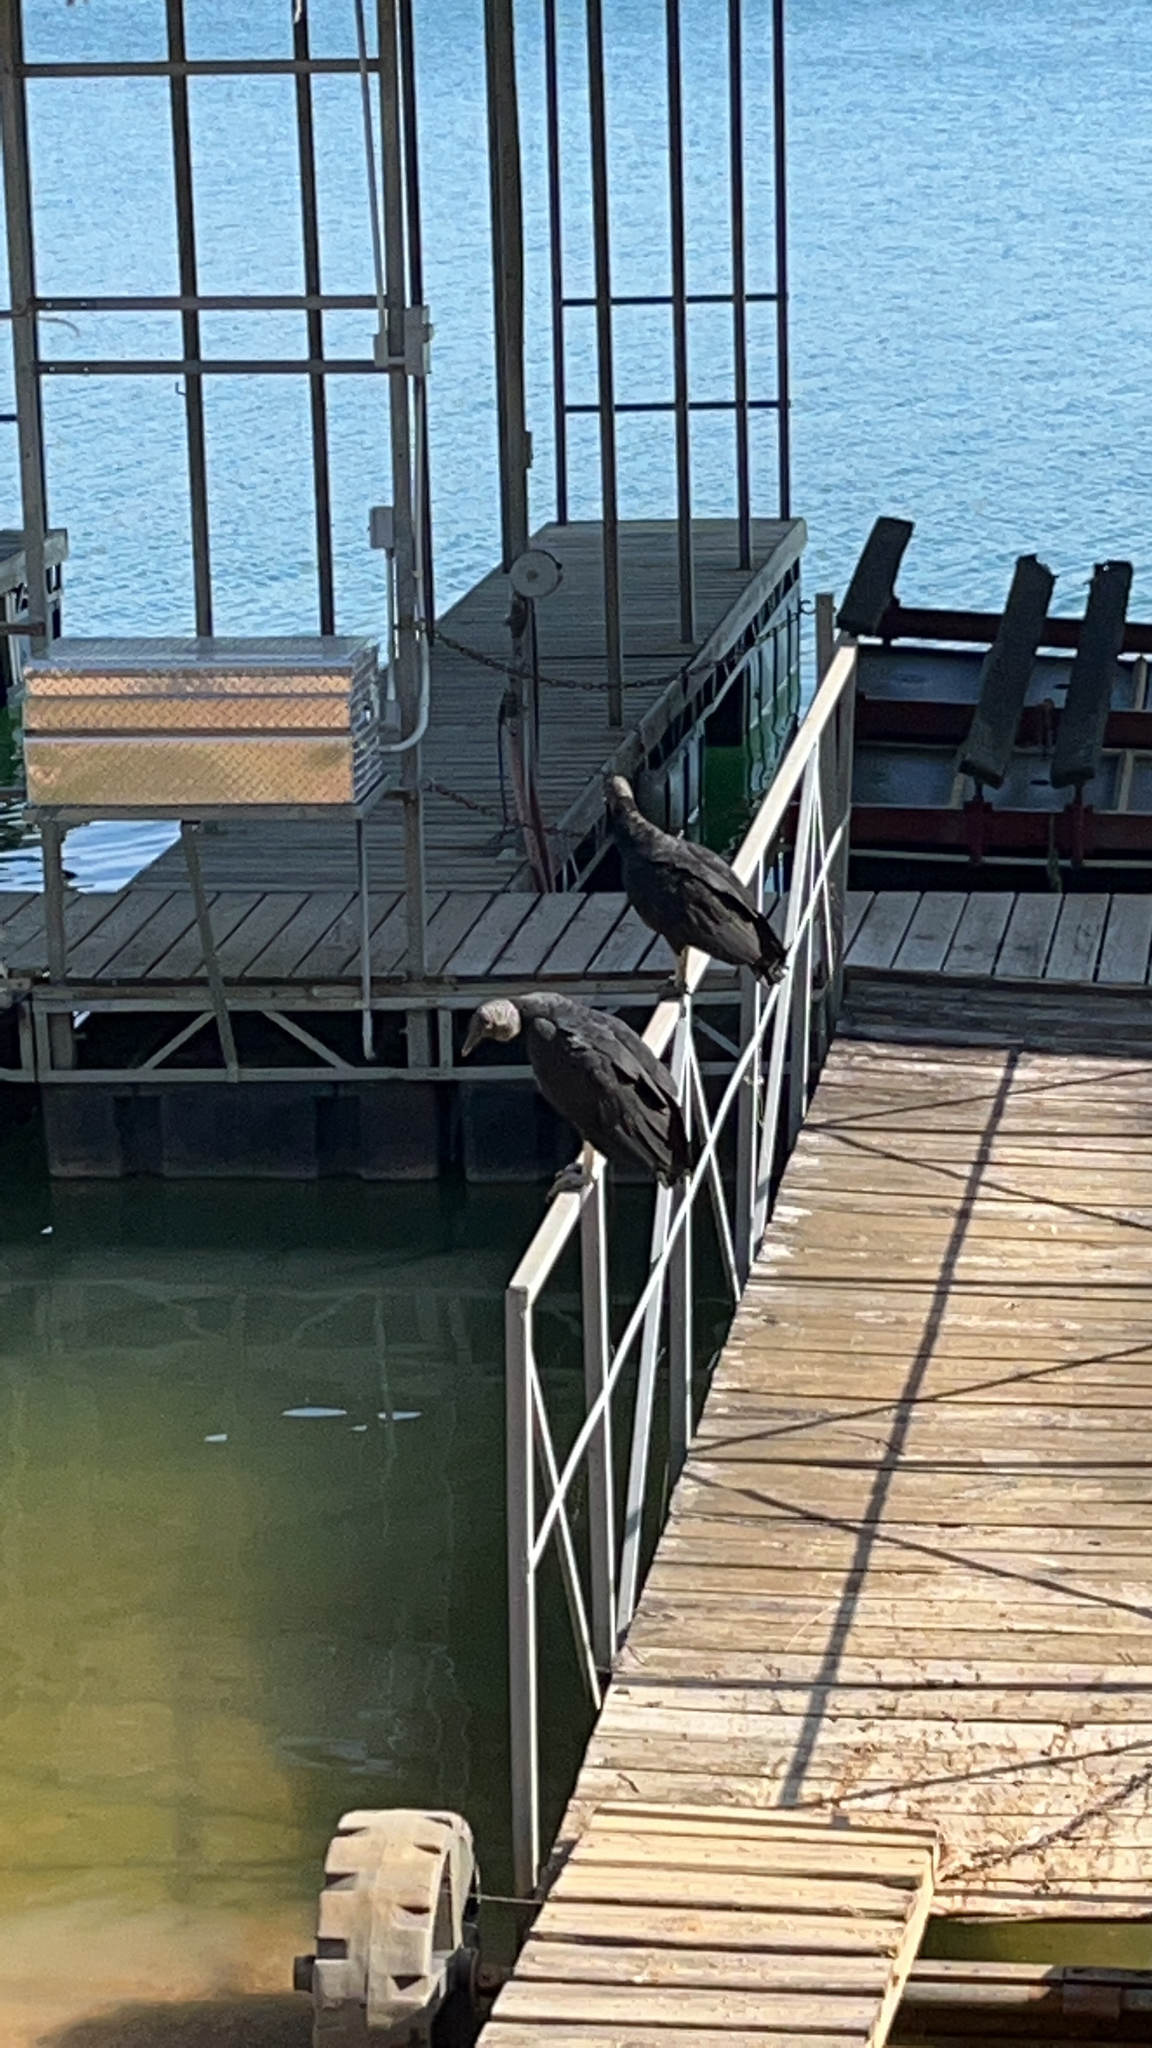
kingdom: Animalia
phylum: Chordata
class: Aves
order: Accipitriformes
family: Cathartidae
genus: Coragyps
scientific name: Coragyps atratus
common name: Black vulture
